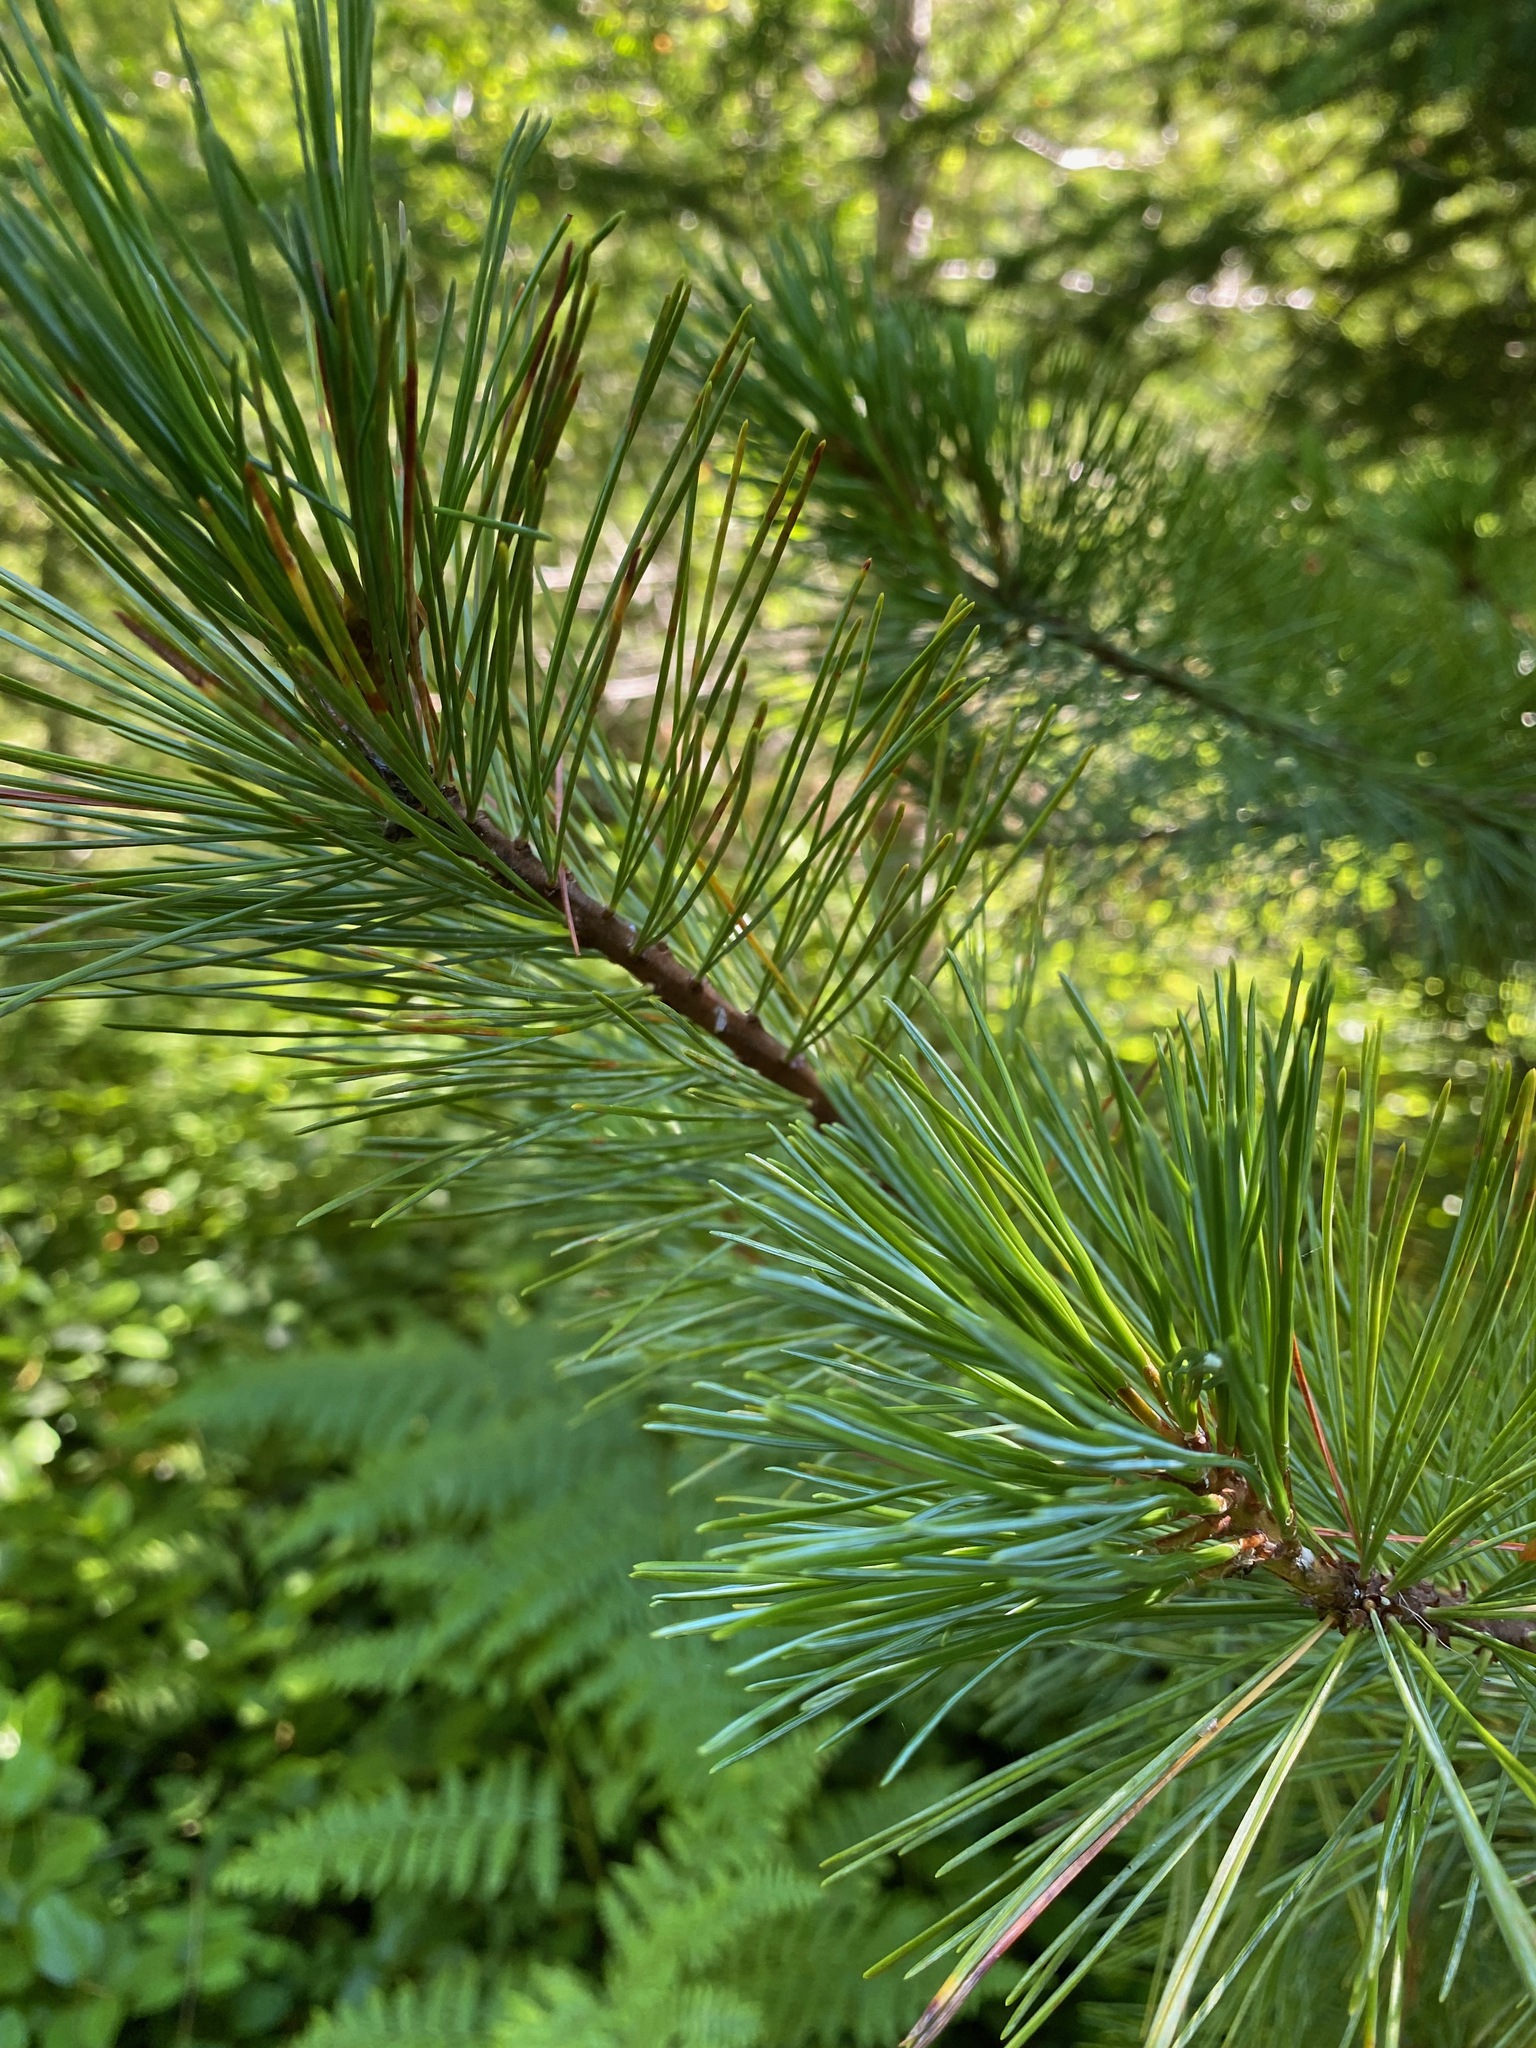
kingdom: Plantae
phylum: Tracheophyta
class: Pinopsida
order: Pinales
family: Pinaceae
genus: Pinus
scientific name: Pinus monticola
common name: Western white pine
